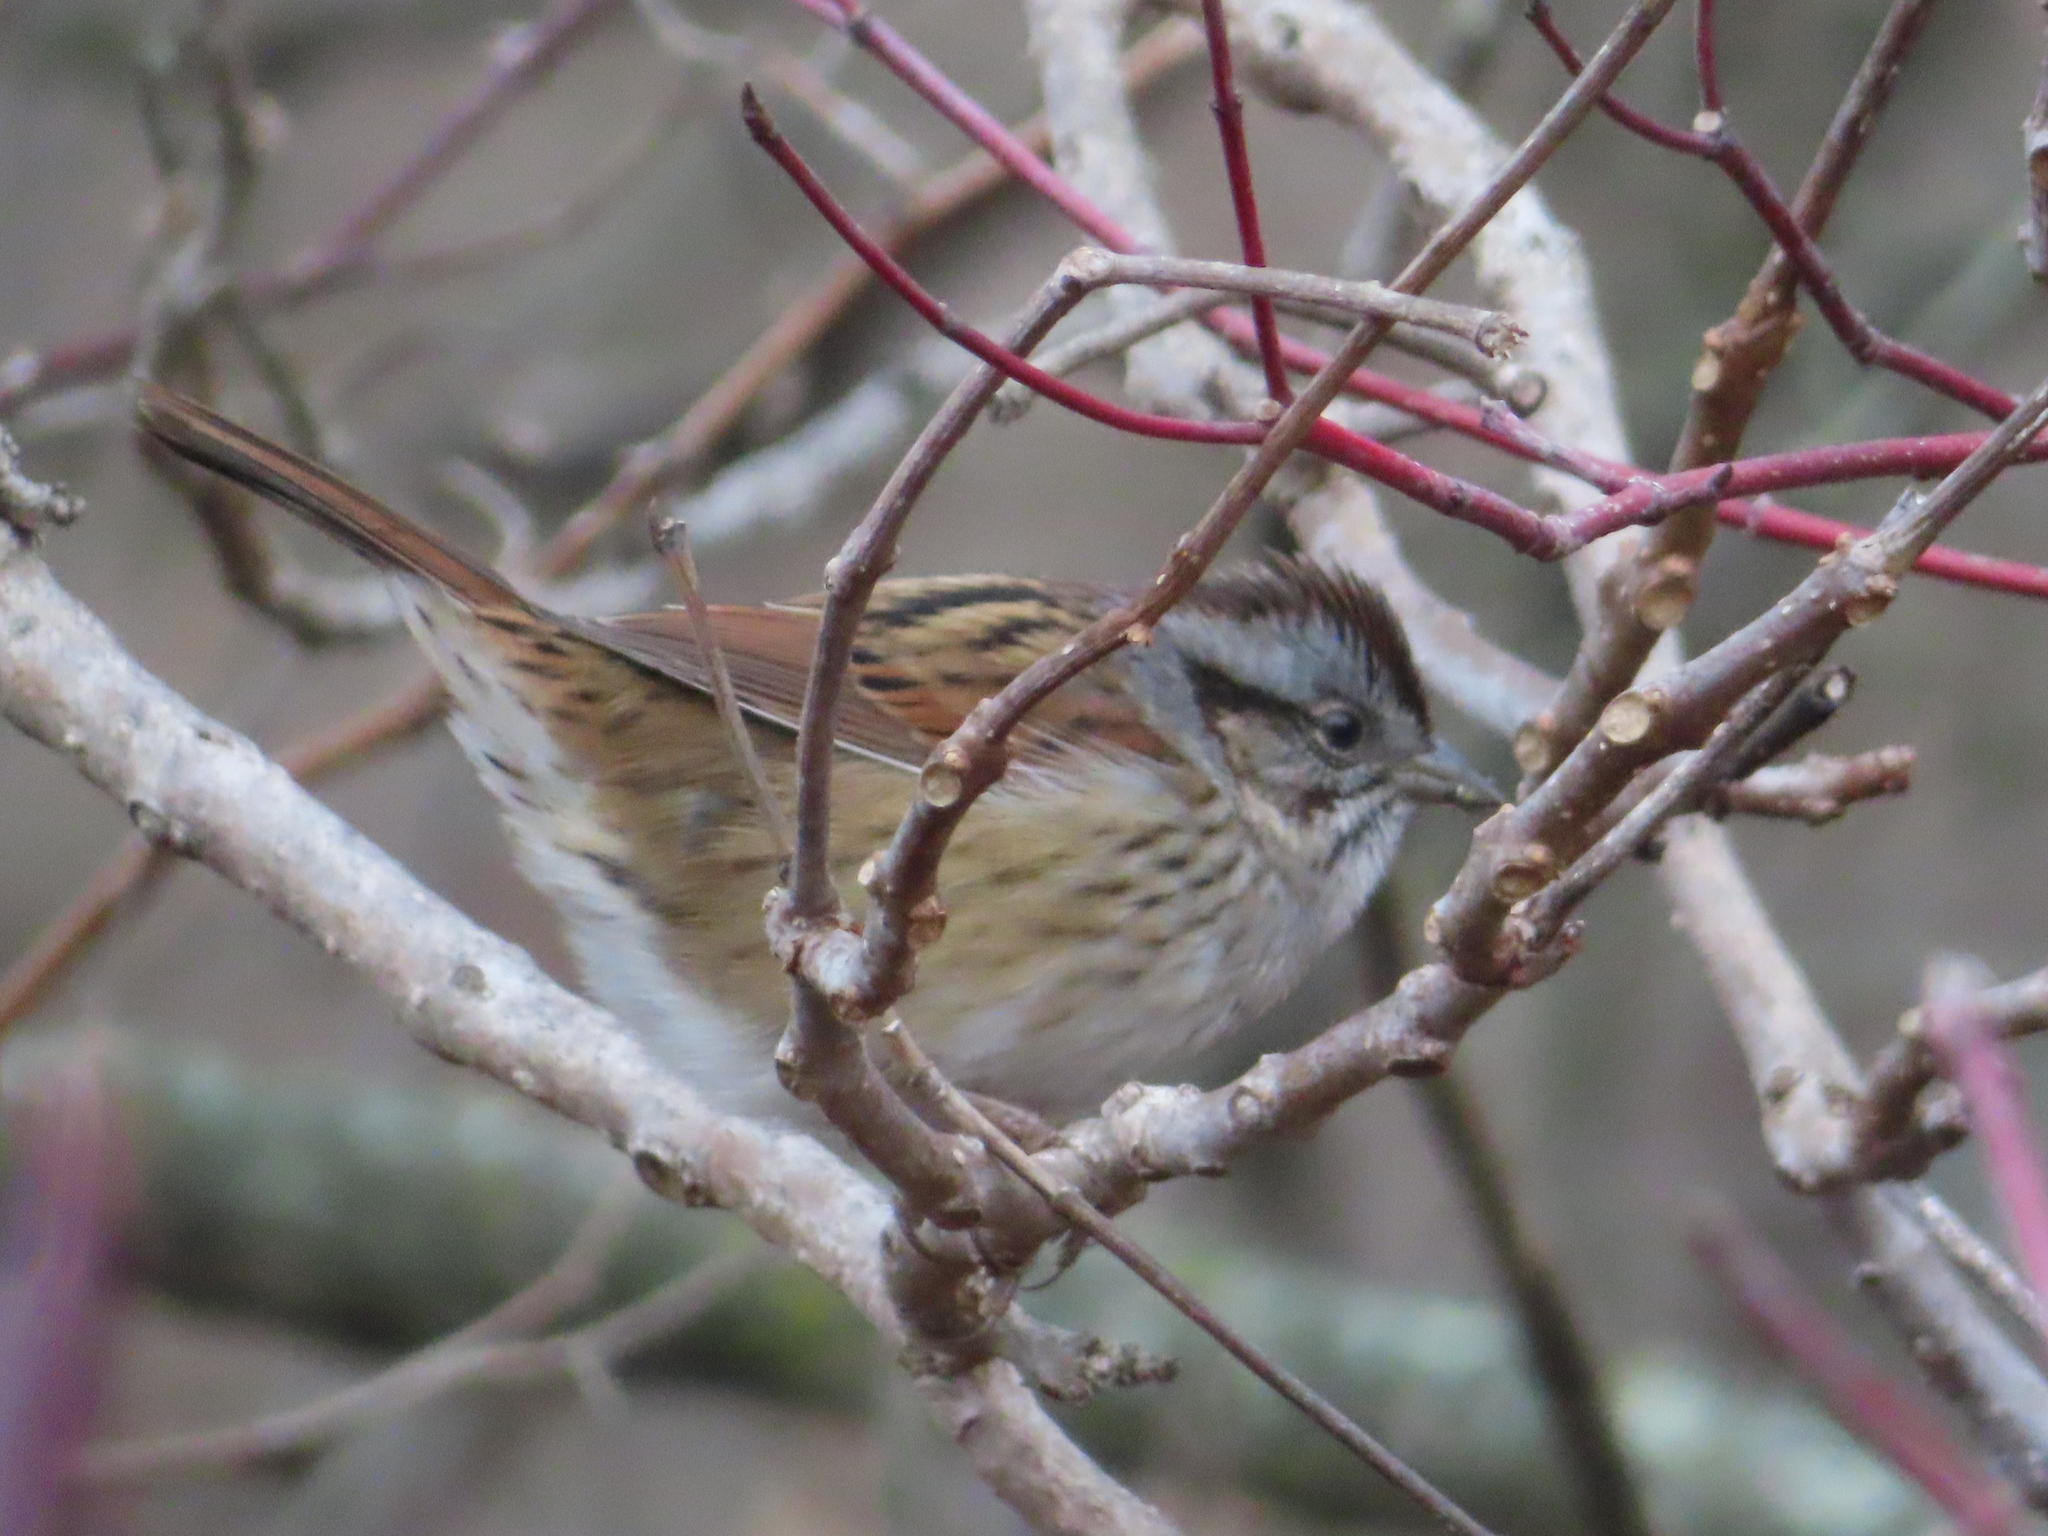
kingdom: Animalia
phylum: Chordata
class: Aves
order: Passeriformes
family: Passerellidae
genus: Melospiza
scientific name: Melospiza georgiana
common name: Swamp sparrow
